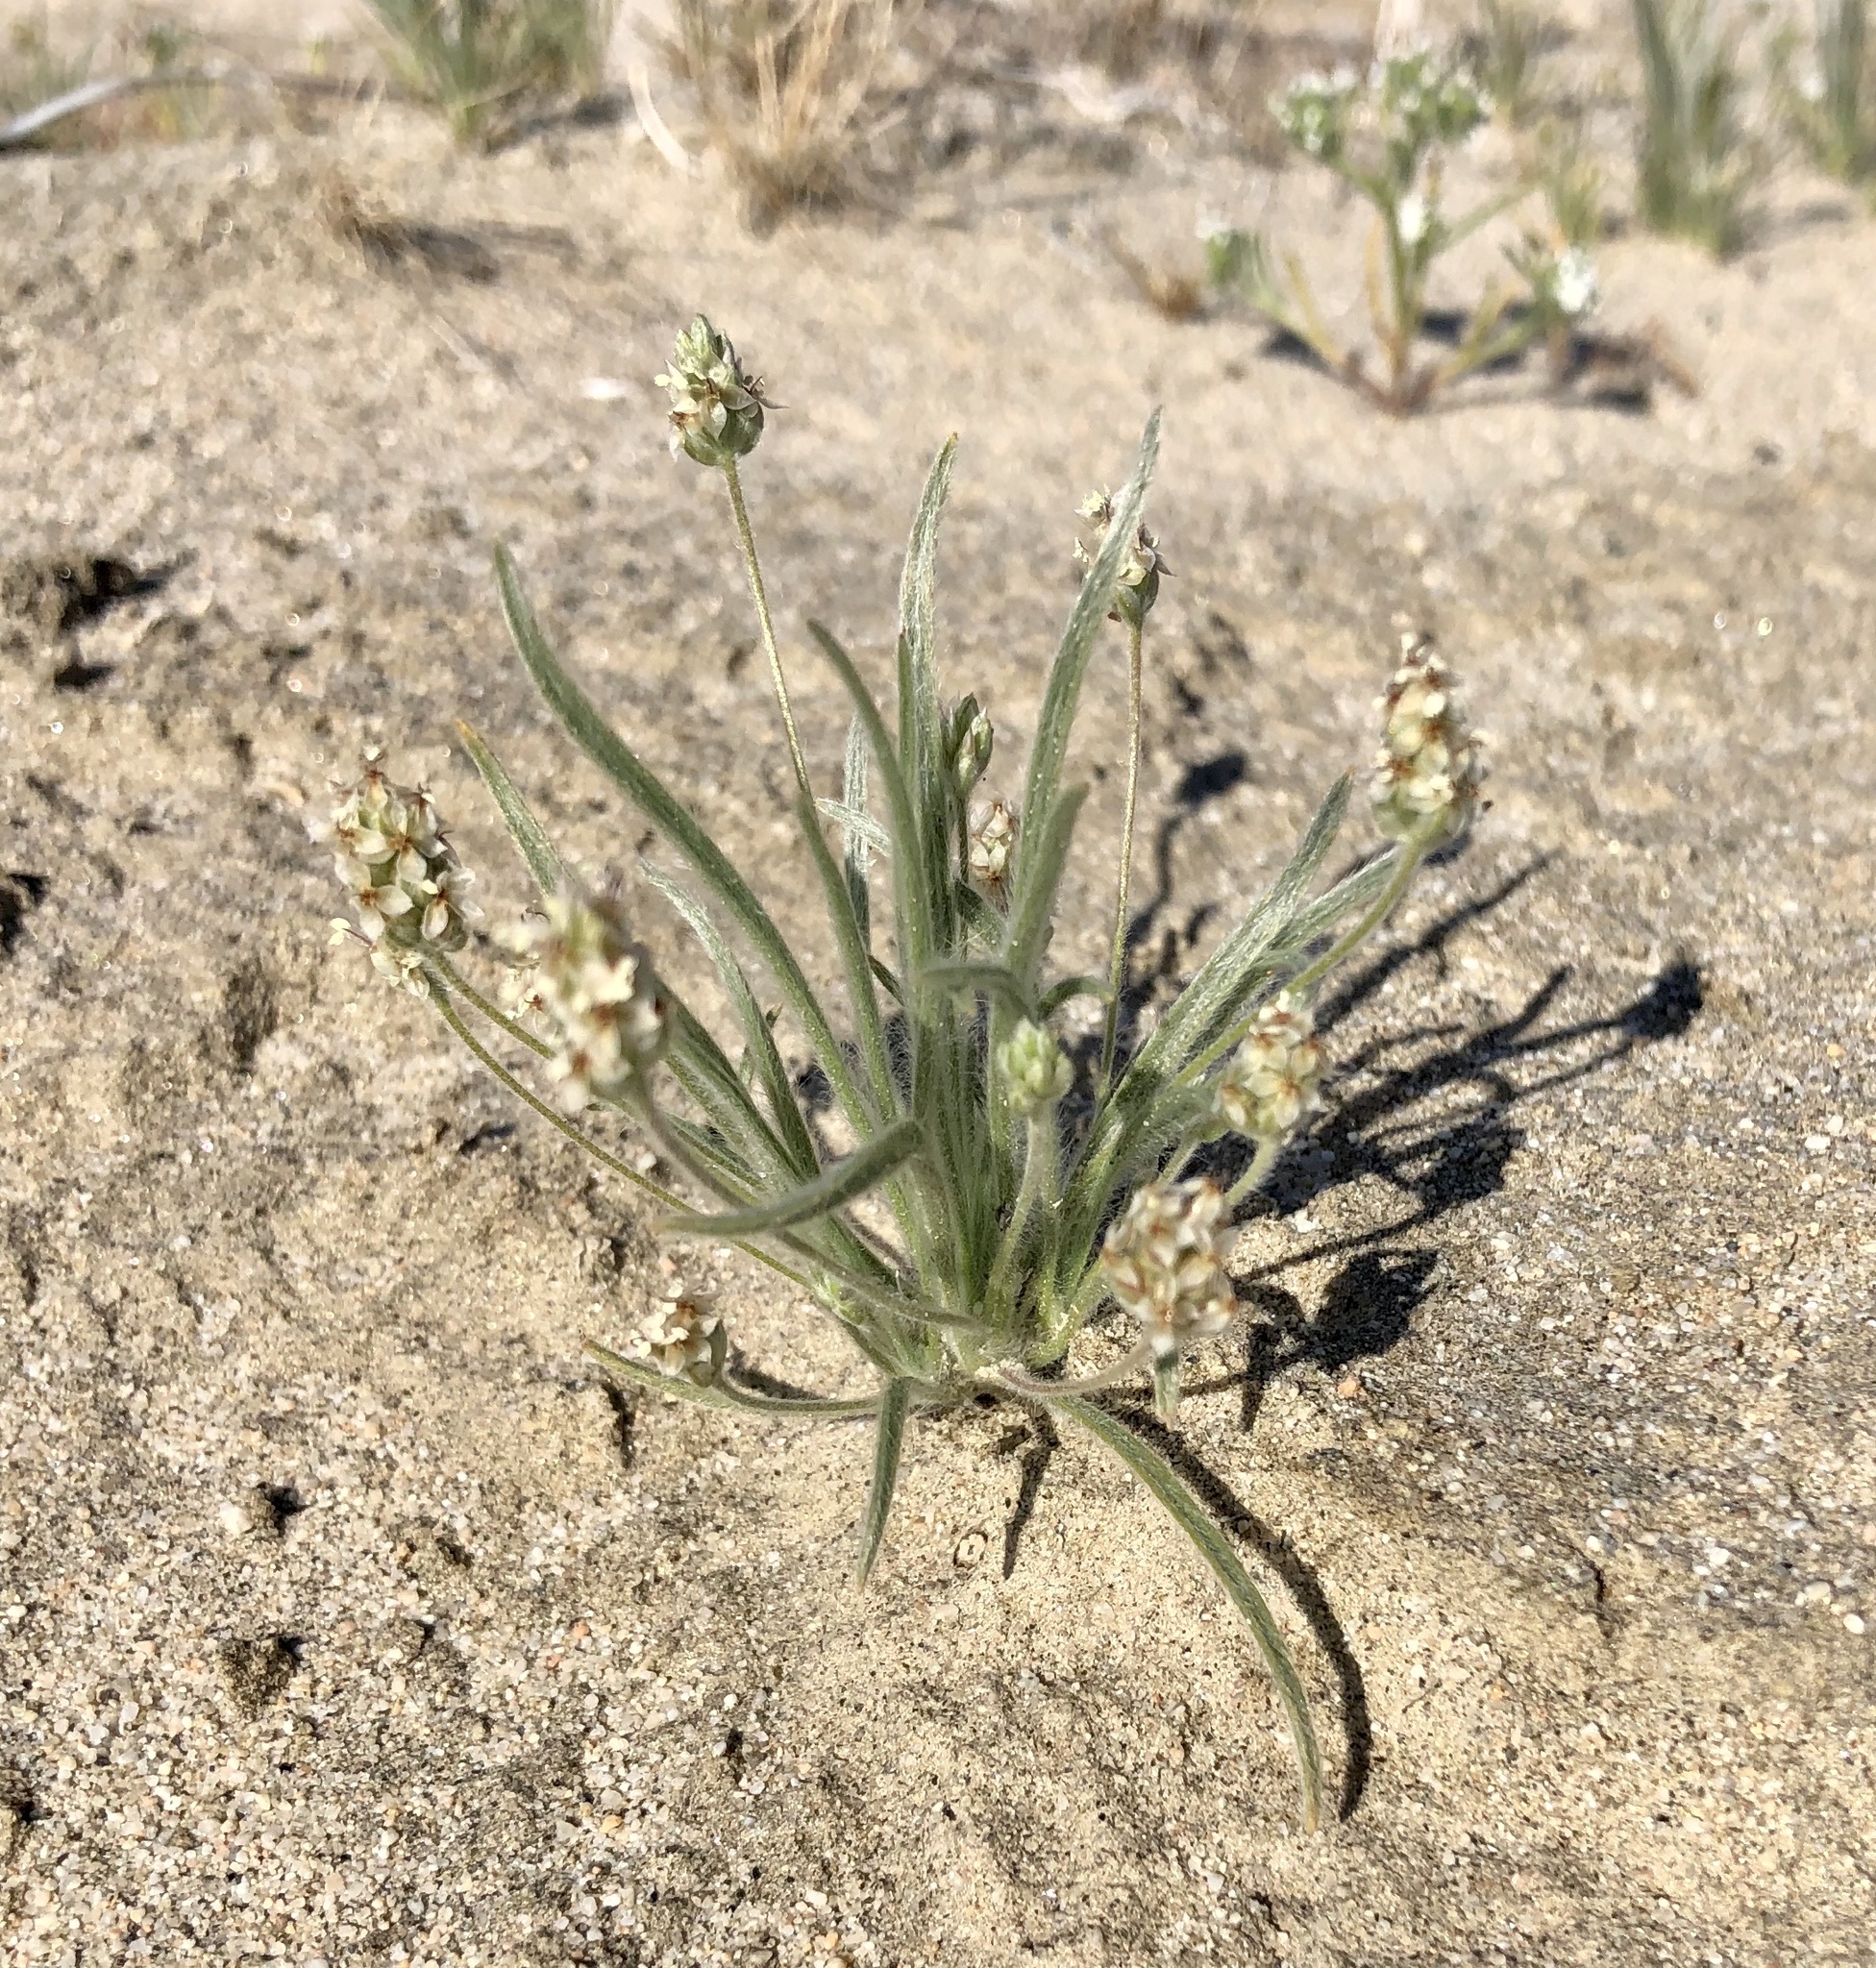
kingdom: Plantae
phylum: Tracheophyta
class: Magnoliopsida
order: Lamiales
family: Plantaginaceae
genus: Plantago
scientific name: Plantago ovata
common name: Blond plantain
